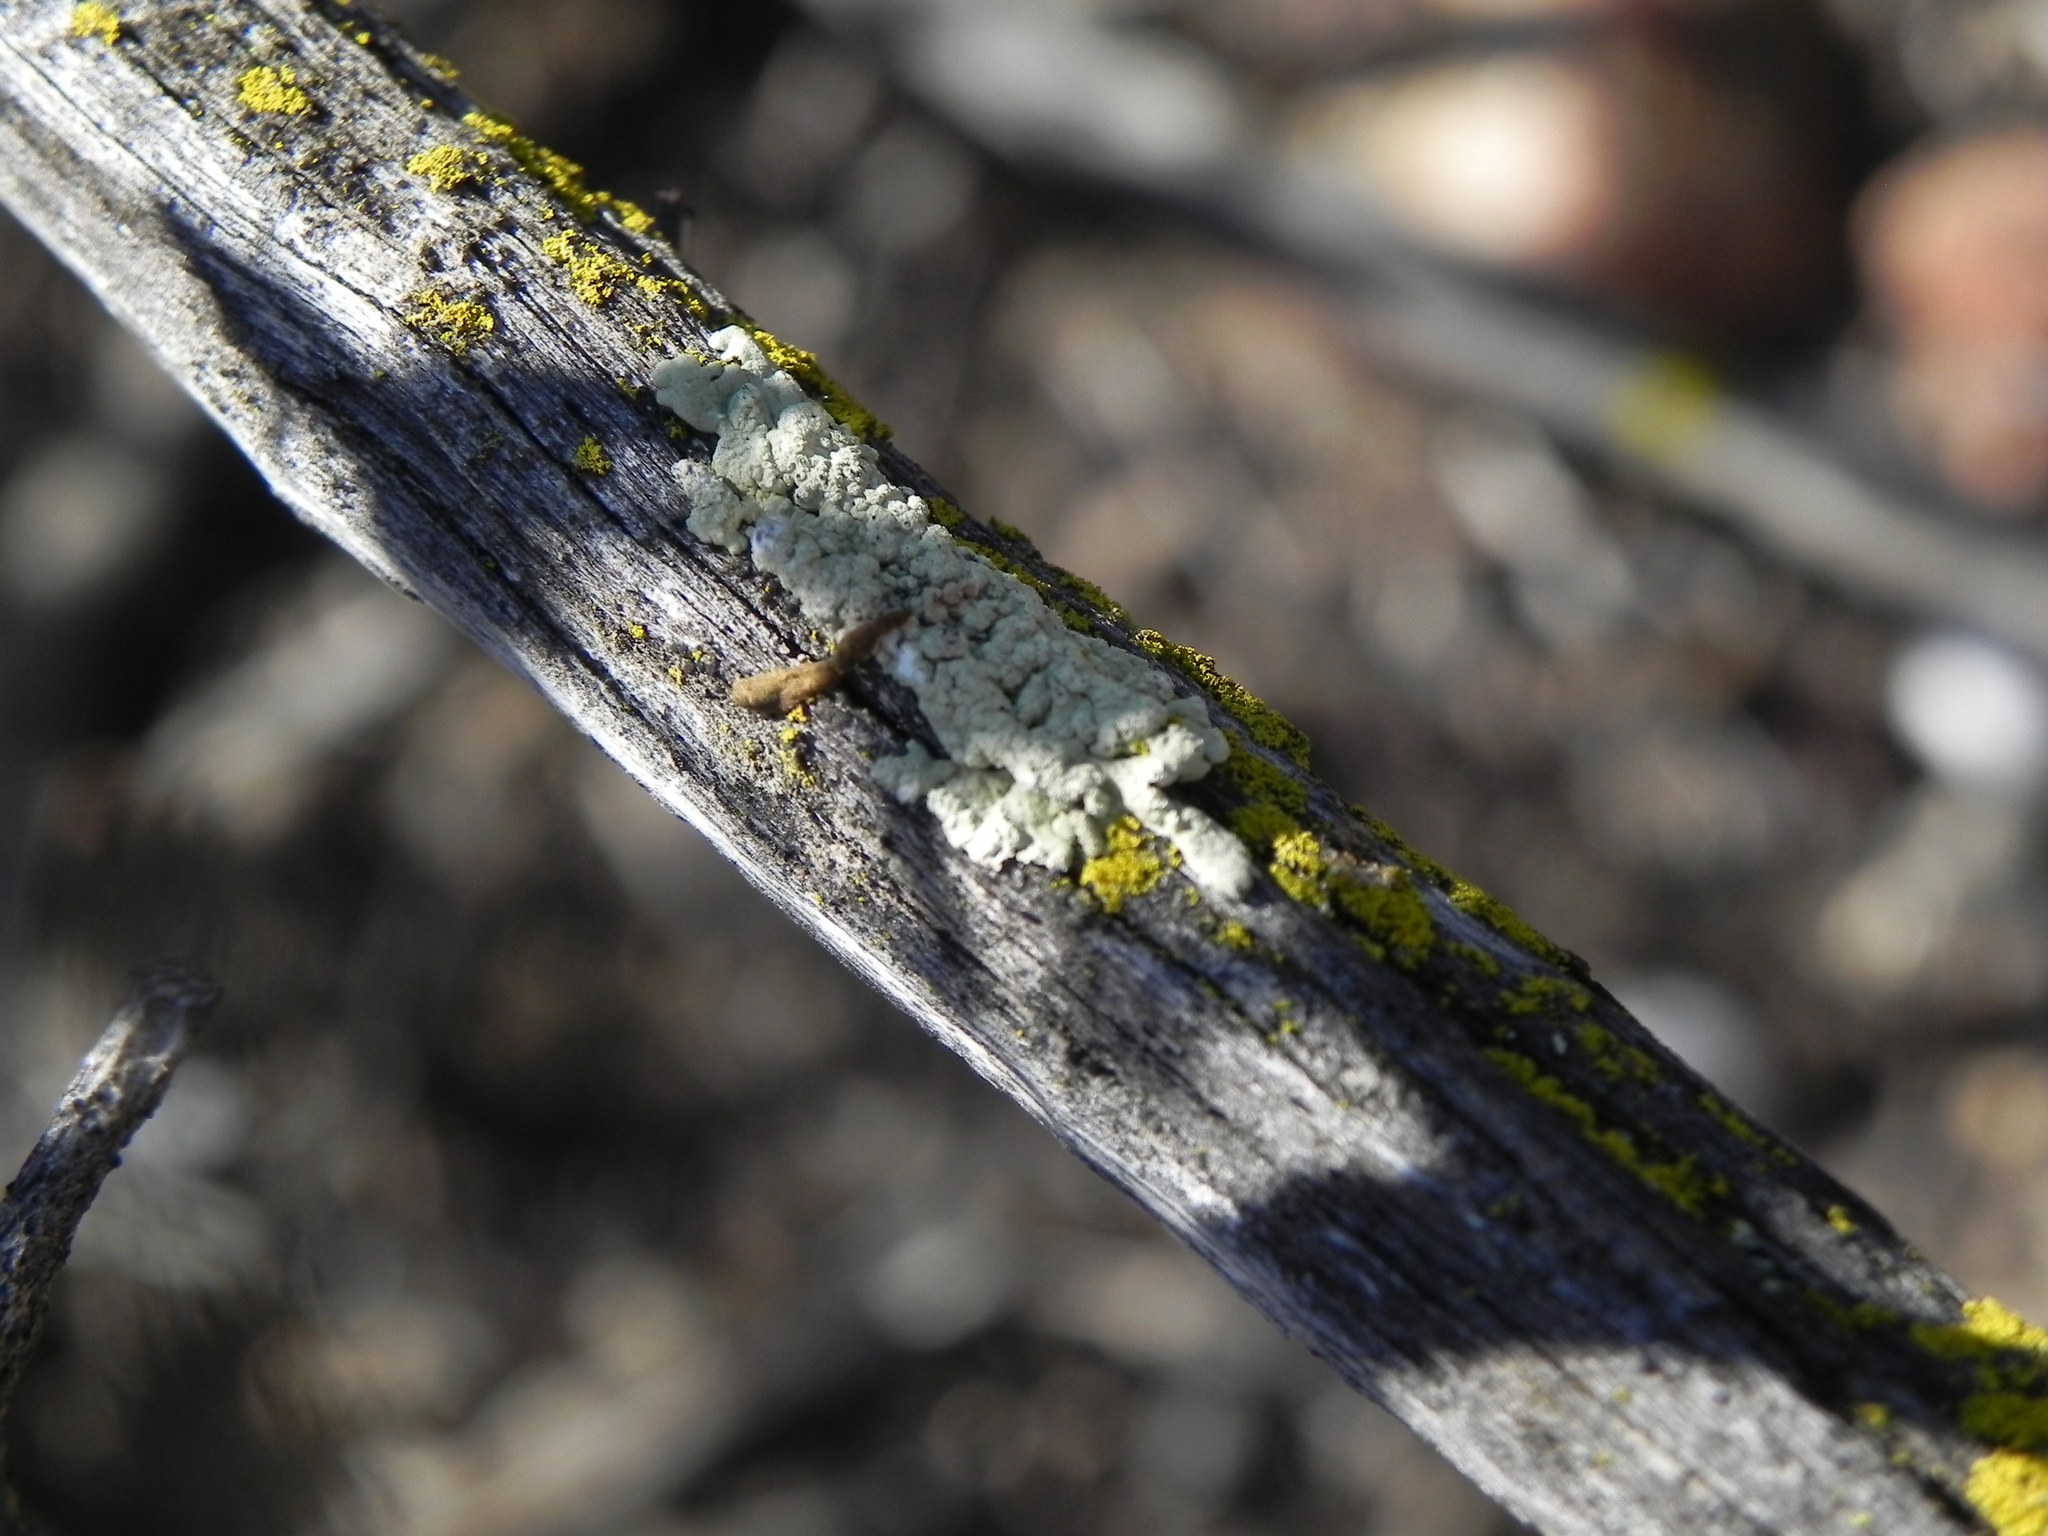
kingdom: Fungi
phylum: Ascomycota
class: Lecanoromycetes
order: Lecanorales
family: Parmeliaceae
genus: Flavoparmelia
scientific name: Flavoparmelia subcapitata
